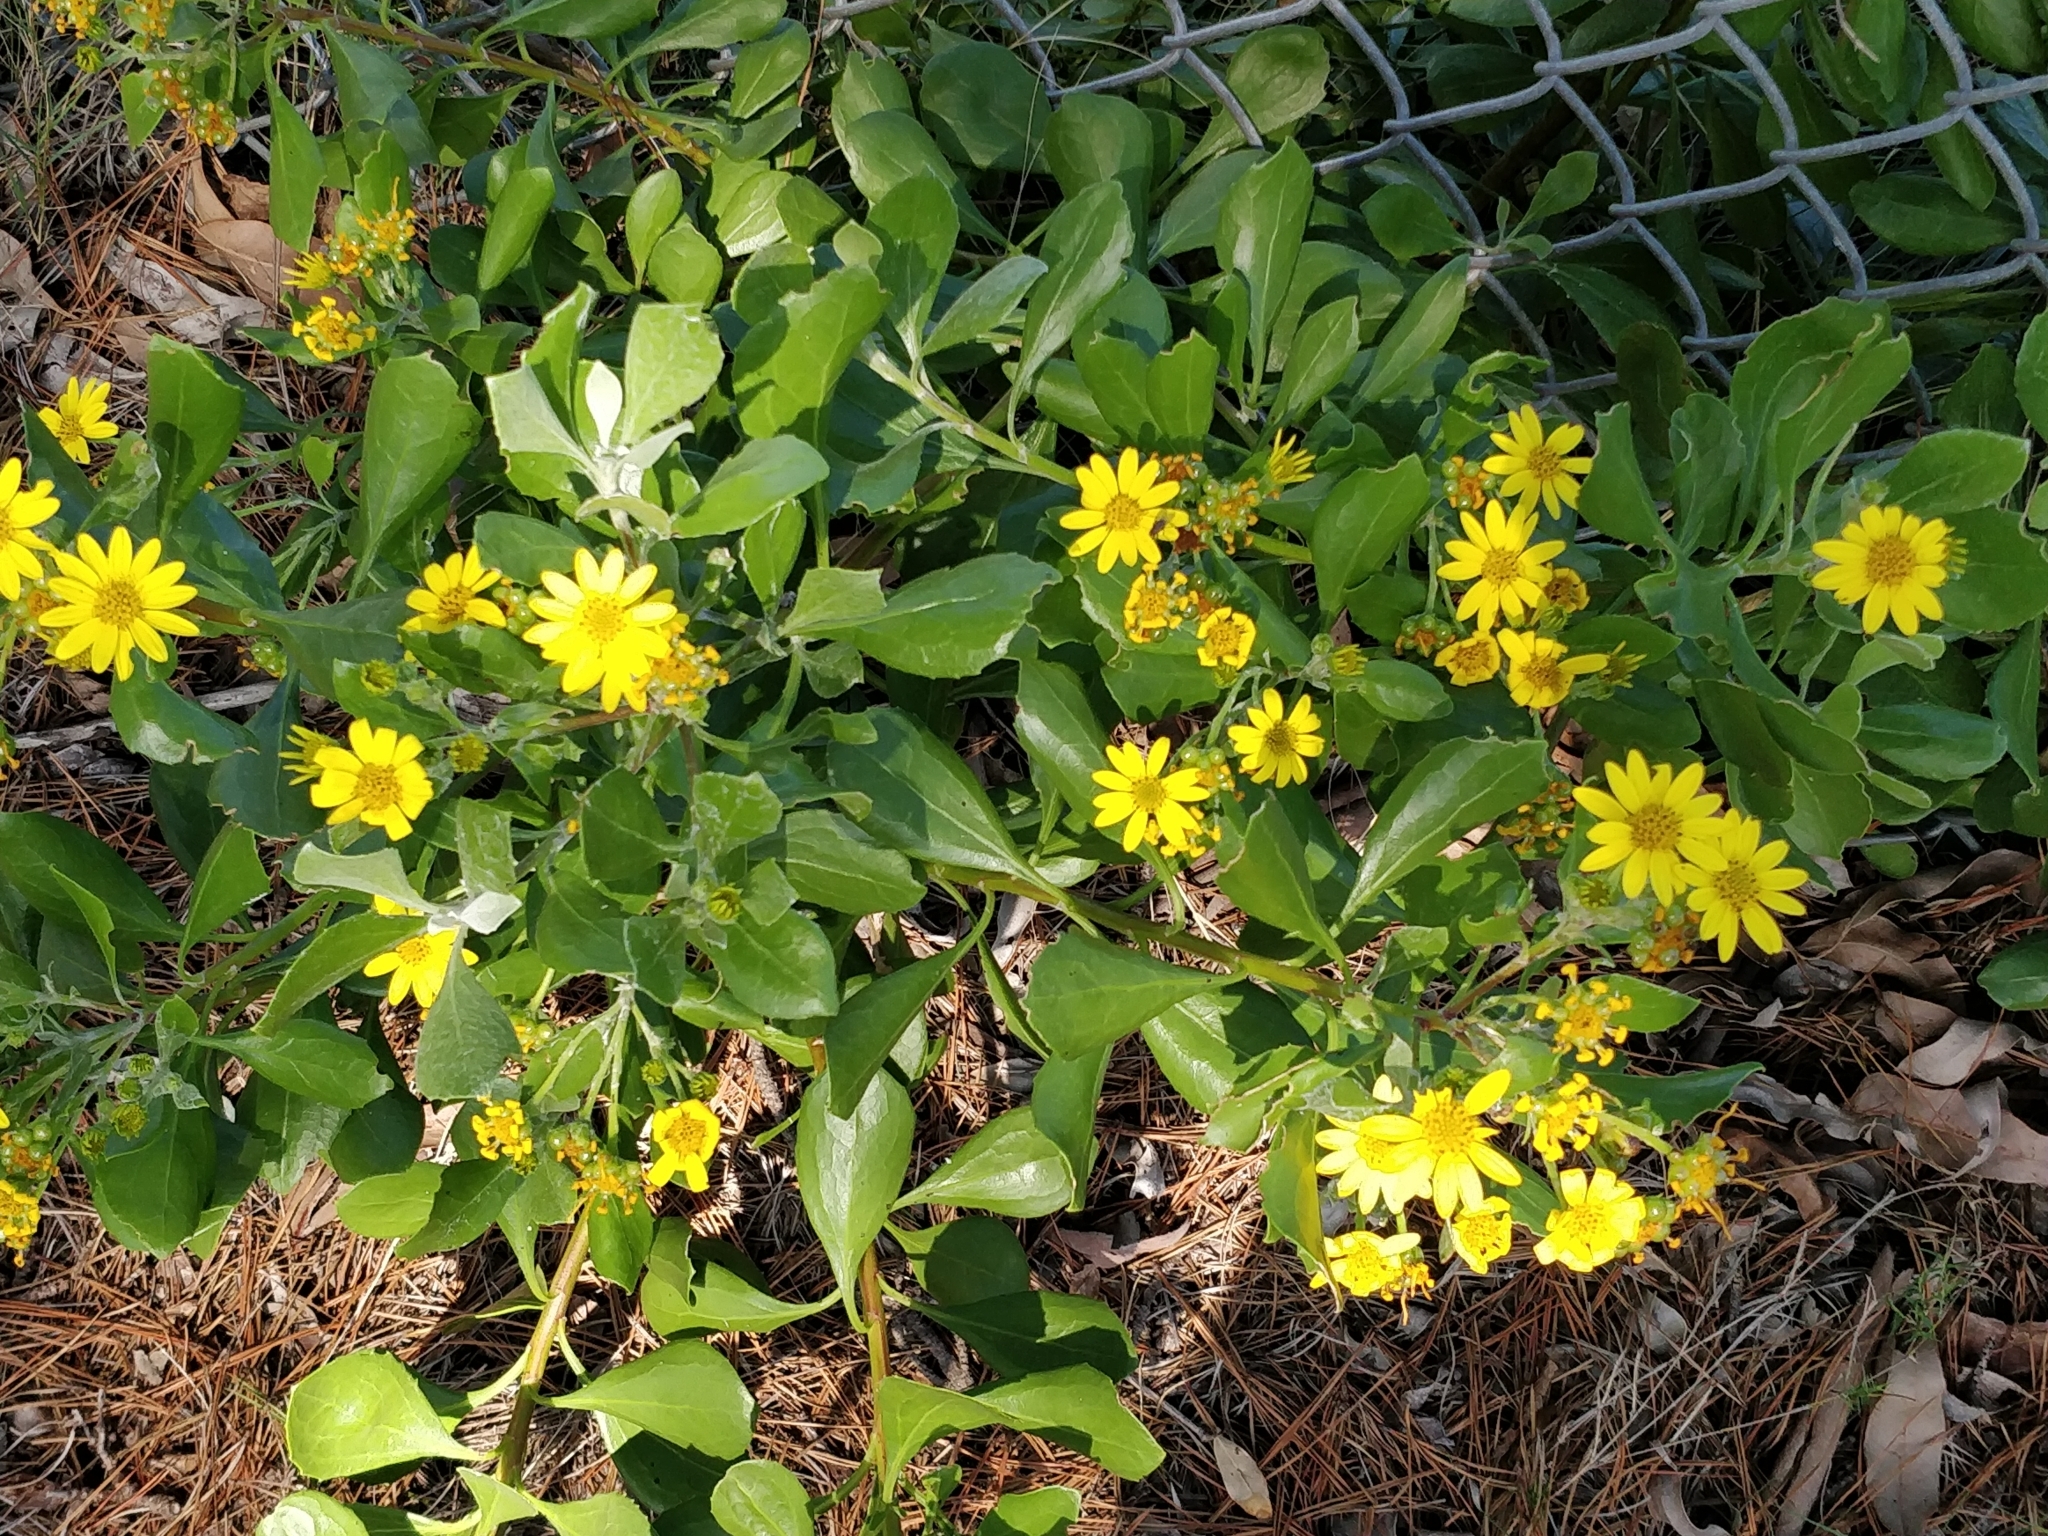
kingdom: Plantae
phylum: Tracheophyta
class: Magnoliopsida
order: Asterales
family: Asteraceae
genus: Osteospermum
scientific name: Osteospermum moniliferum
